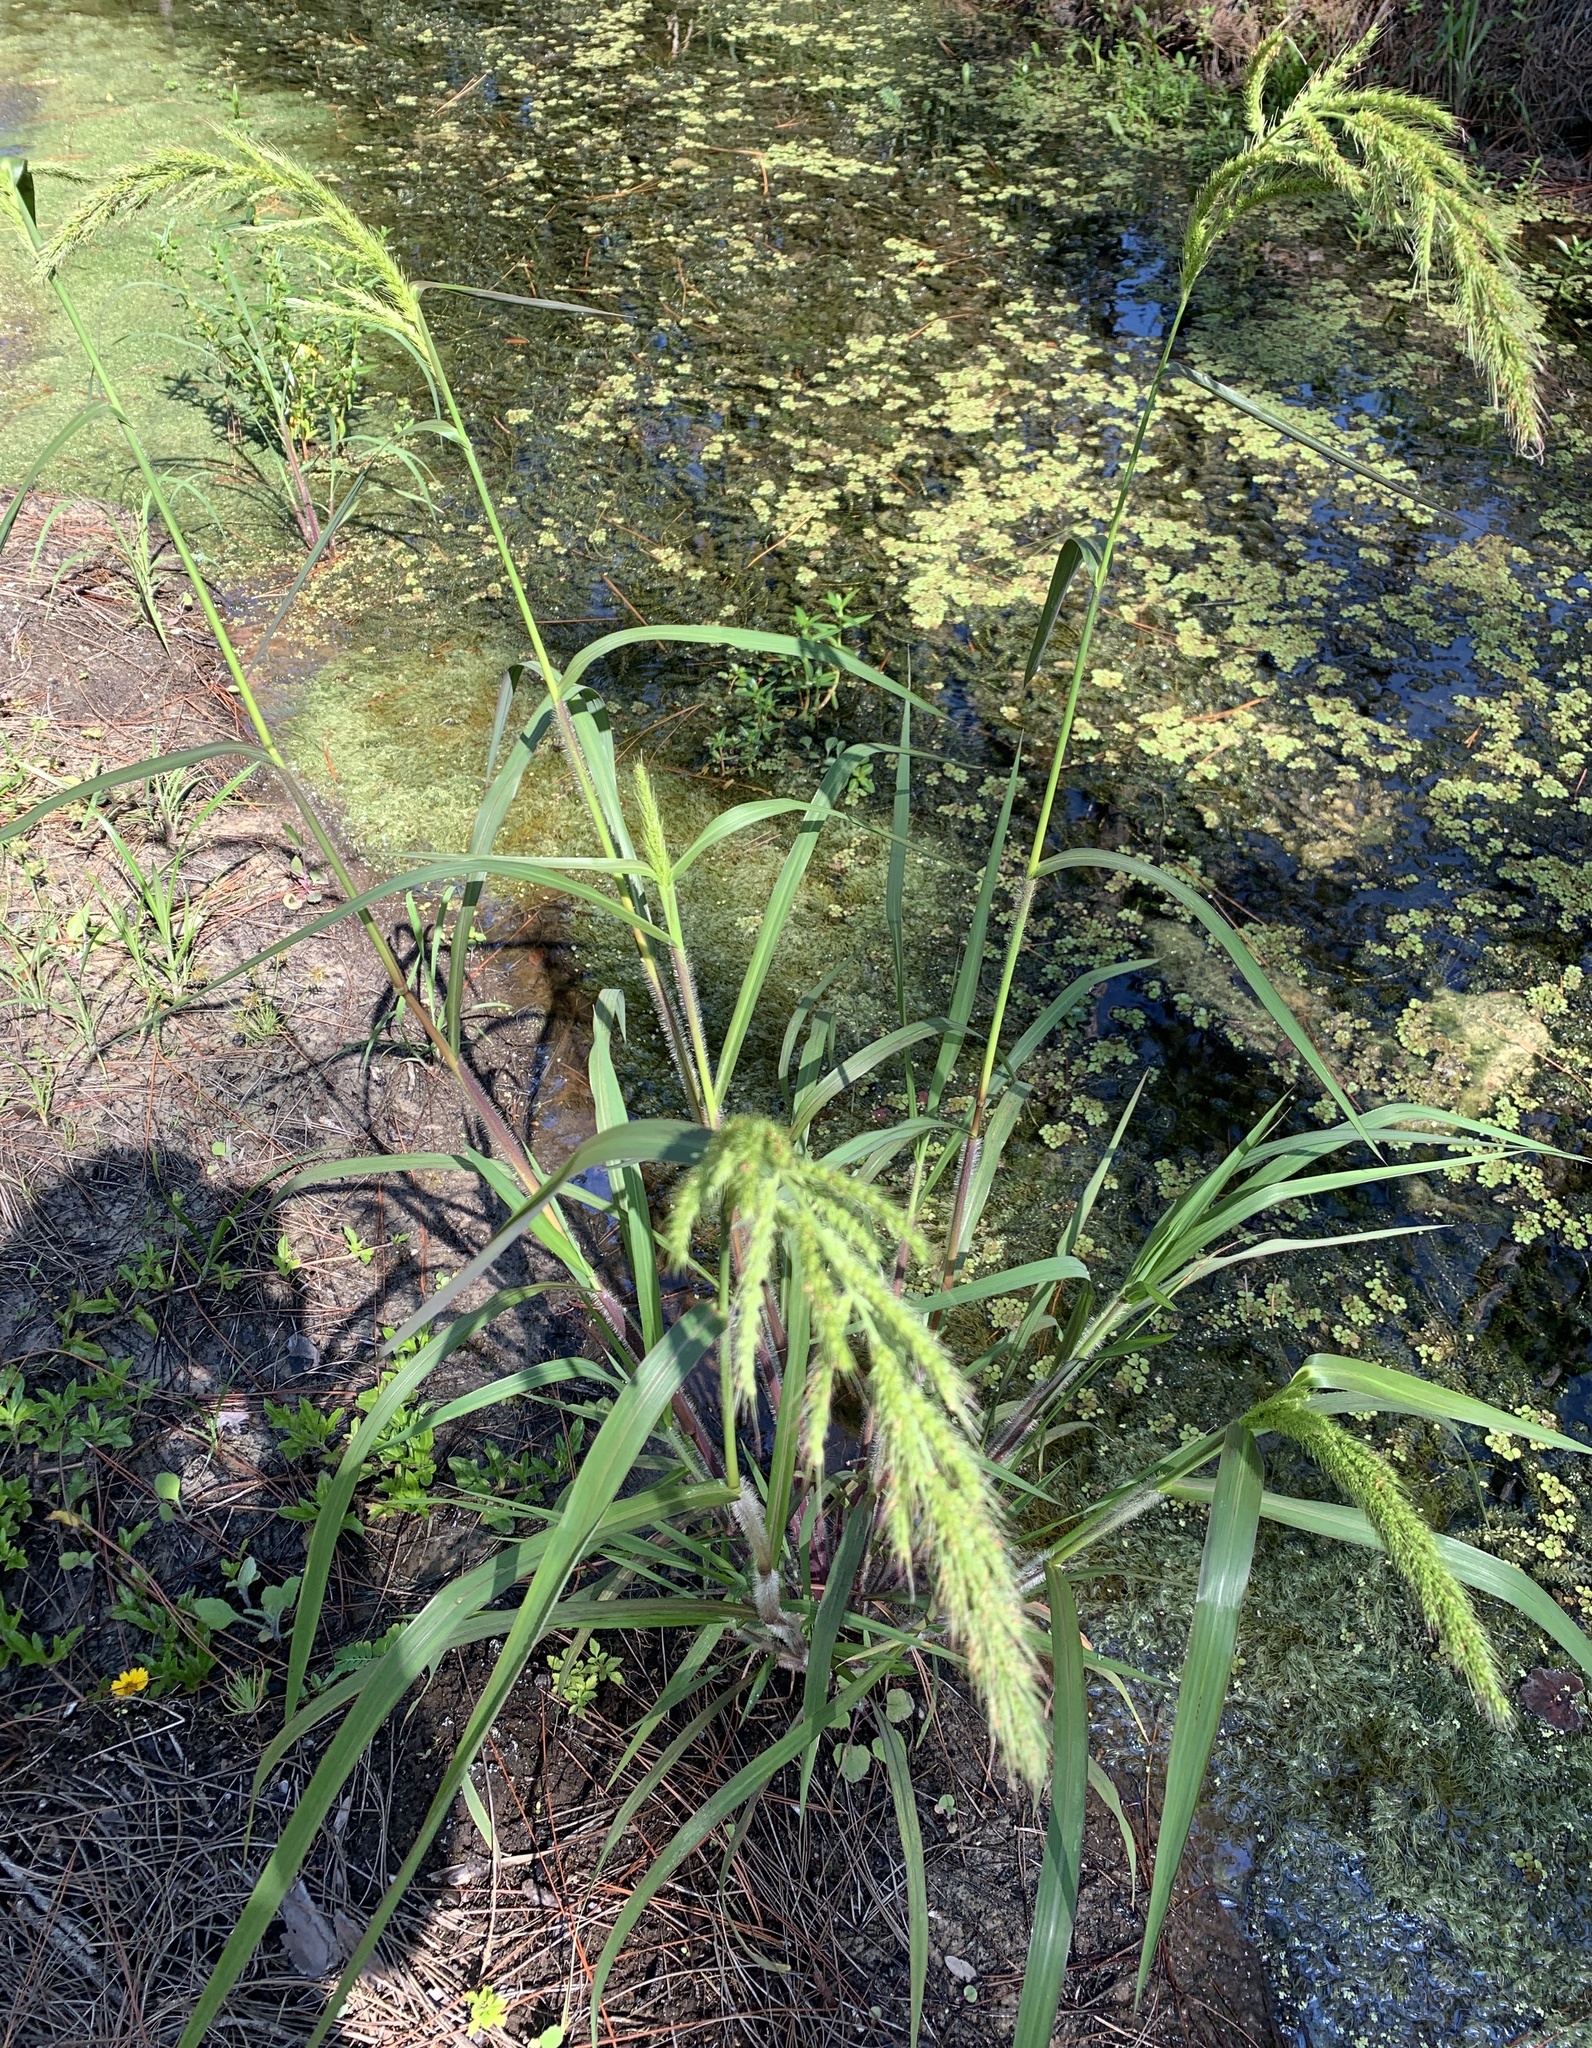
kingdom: Plantae
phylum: Tracheophyta
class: Liliopsida
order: Poales
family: Poaceae
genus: Echinochloa
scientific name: Echinochloa walteri
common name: Coast barnyard grass
